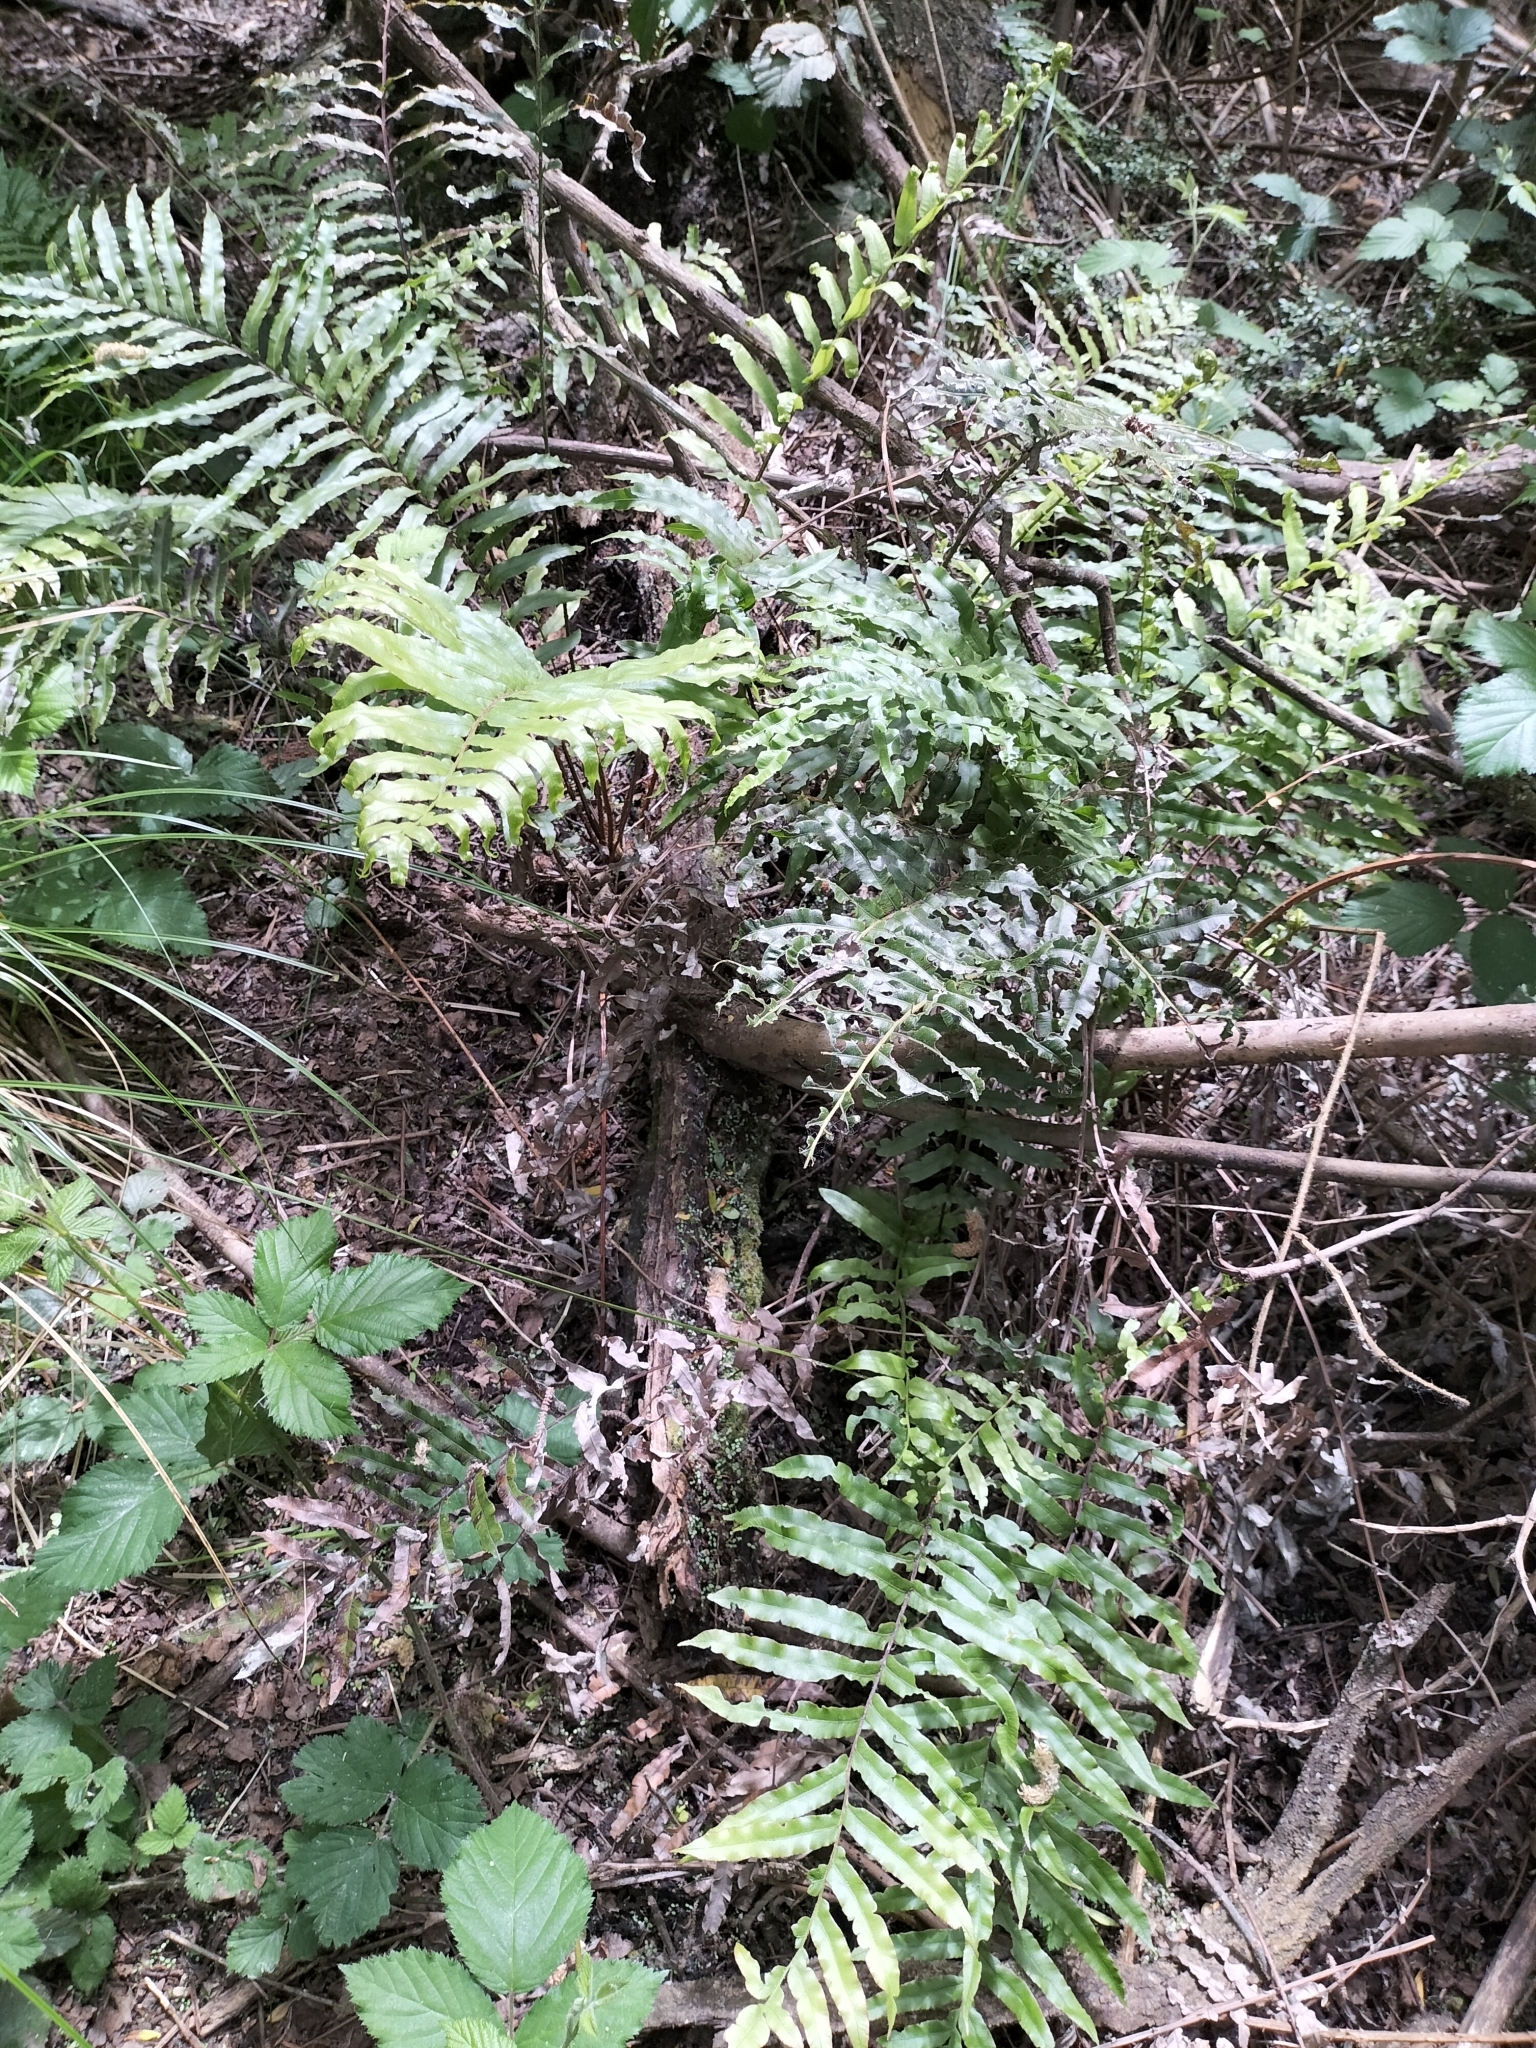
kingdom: Plantae
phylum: Tracheophyta
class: Polypodiopsida
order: Polypodiales
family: Blechnaceae
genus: Parablechnum
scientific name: Parablechnum minus
